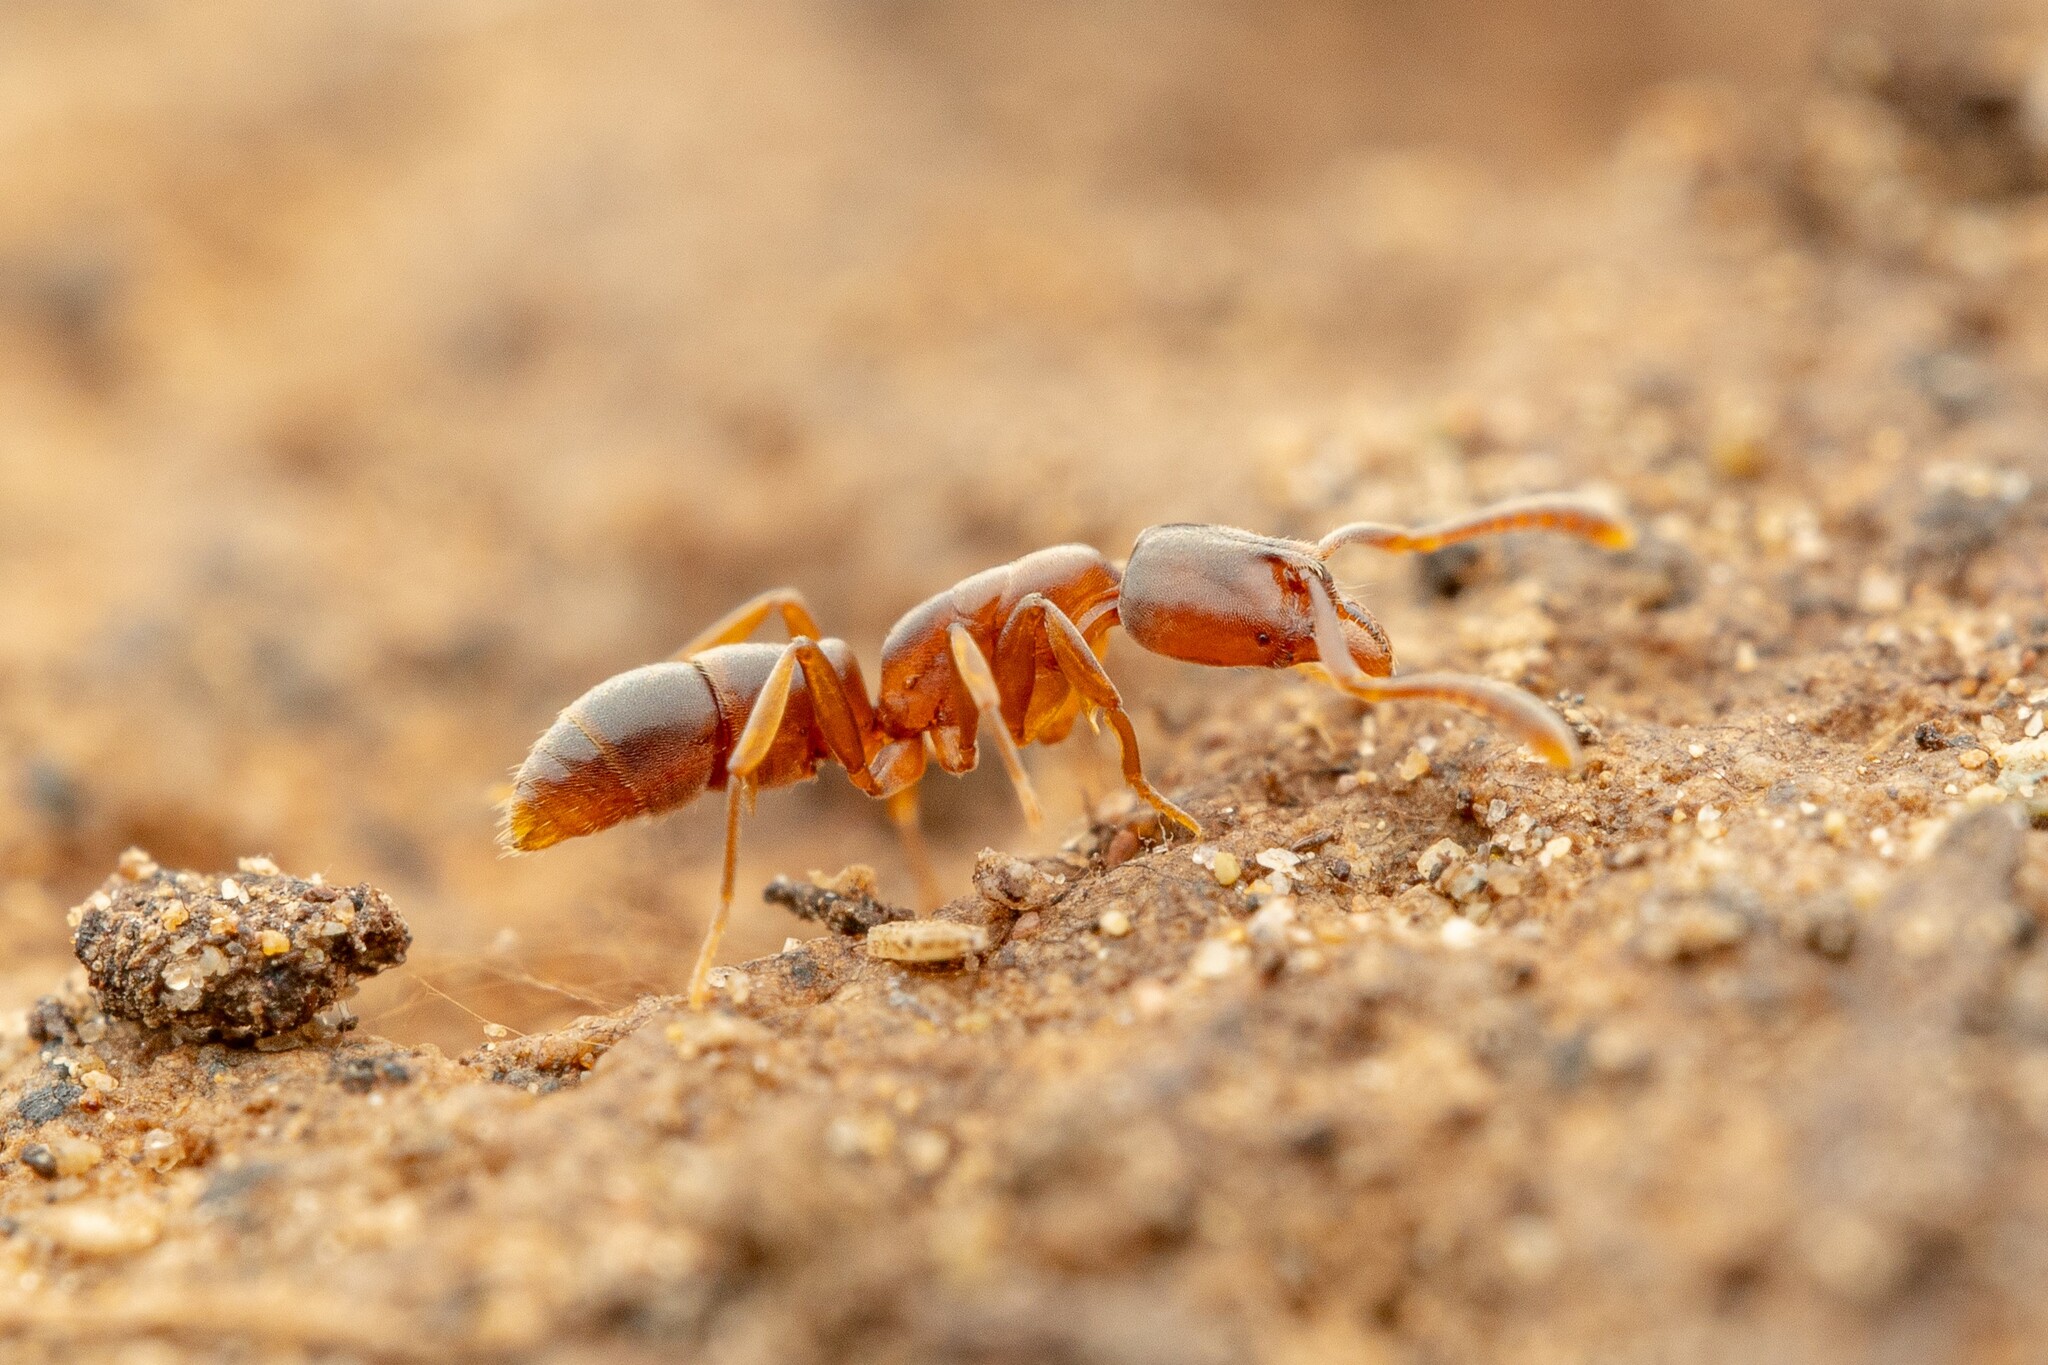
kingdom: Animalia
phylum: Arthropoda
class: Insecta
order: Hymenoptera
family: Formicidae
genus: Hypoponera
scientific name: Hypoponera opacior
